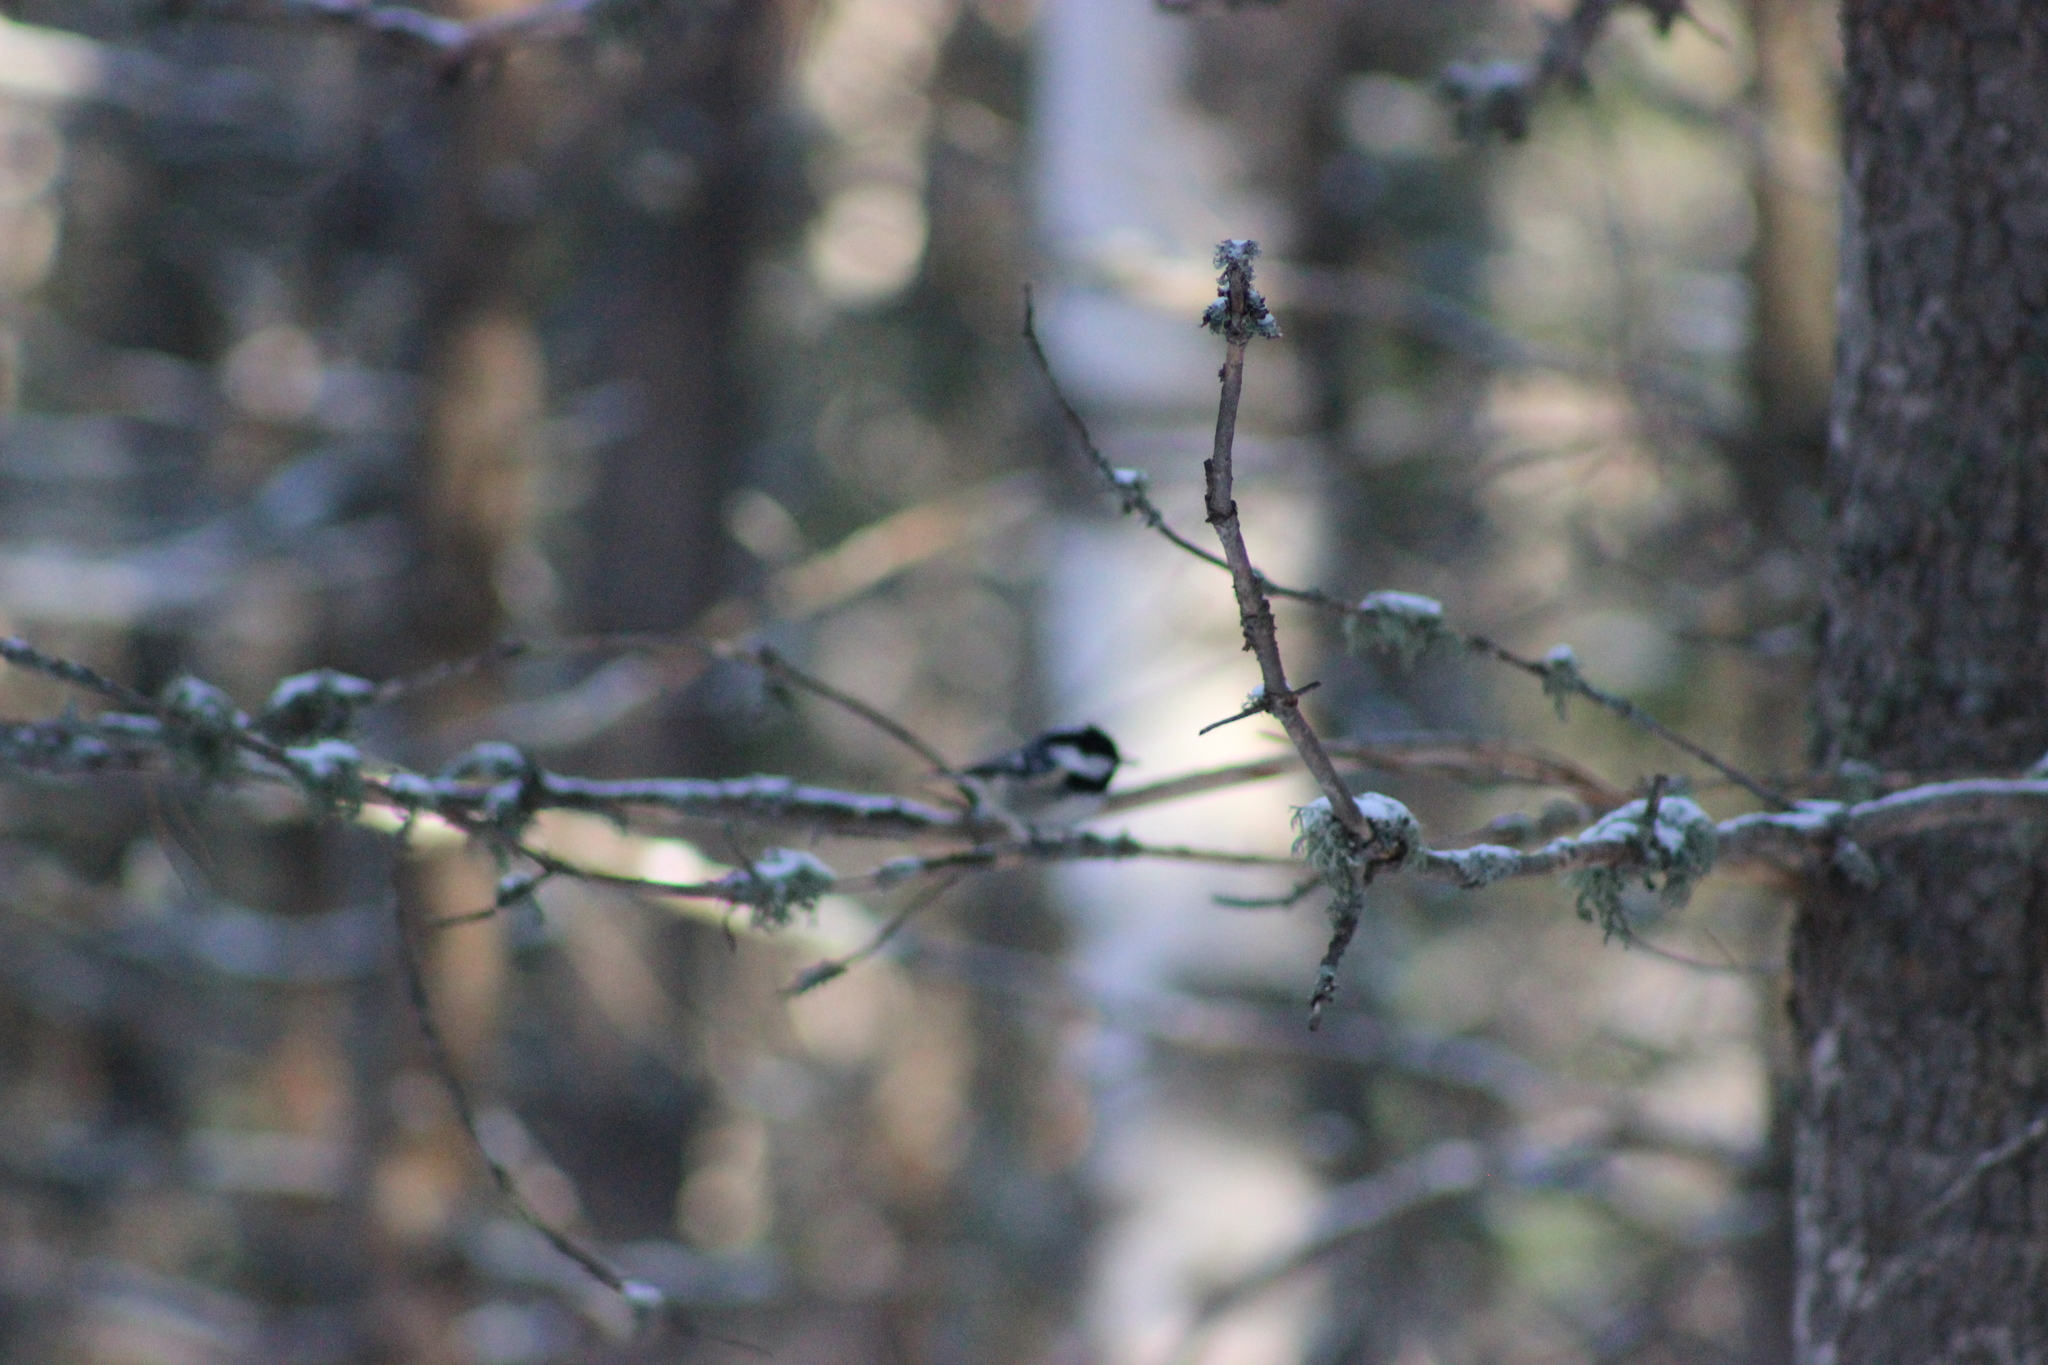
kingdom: Animalia
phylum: Chordata
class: Aves
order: Passeriformes
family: Paridae
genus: Periparus
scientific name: Periparus ater
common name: Coal tit
